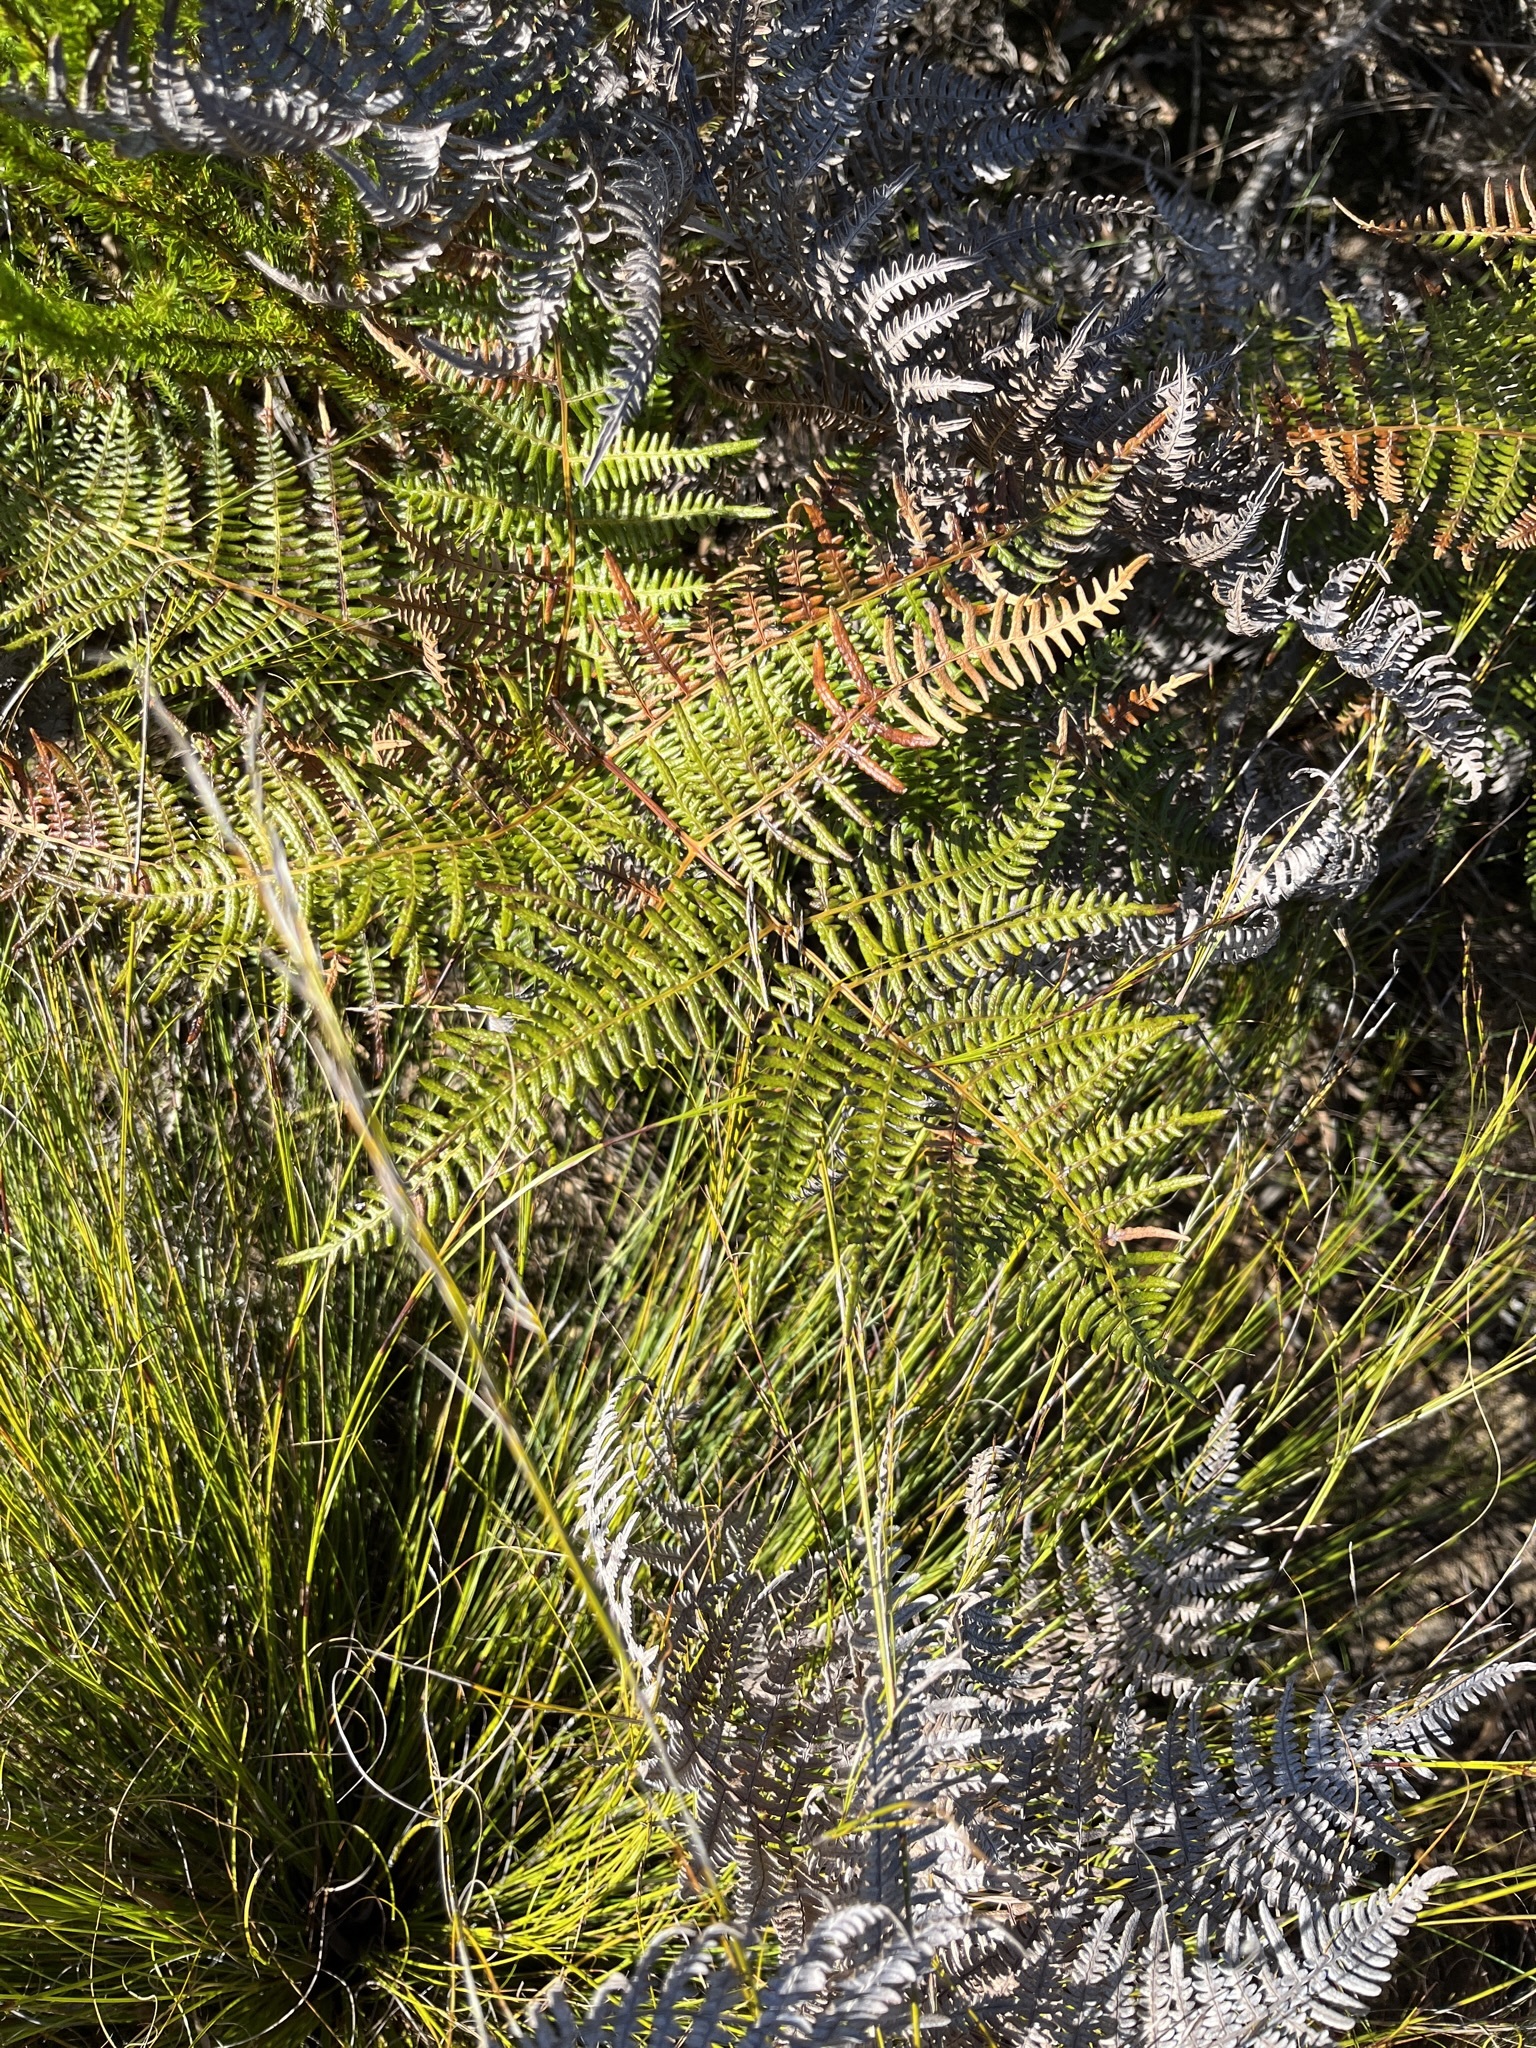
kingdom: Plantae
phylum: Tracheophyta
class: Polypodiopsida
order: Polypodiales
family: Dennstaedtiaceae
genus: Pteridium
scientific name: Pteridium aquilinum
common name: Bracken
